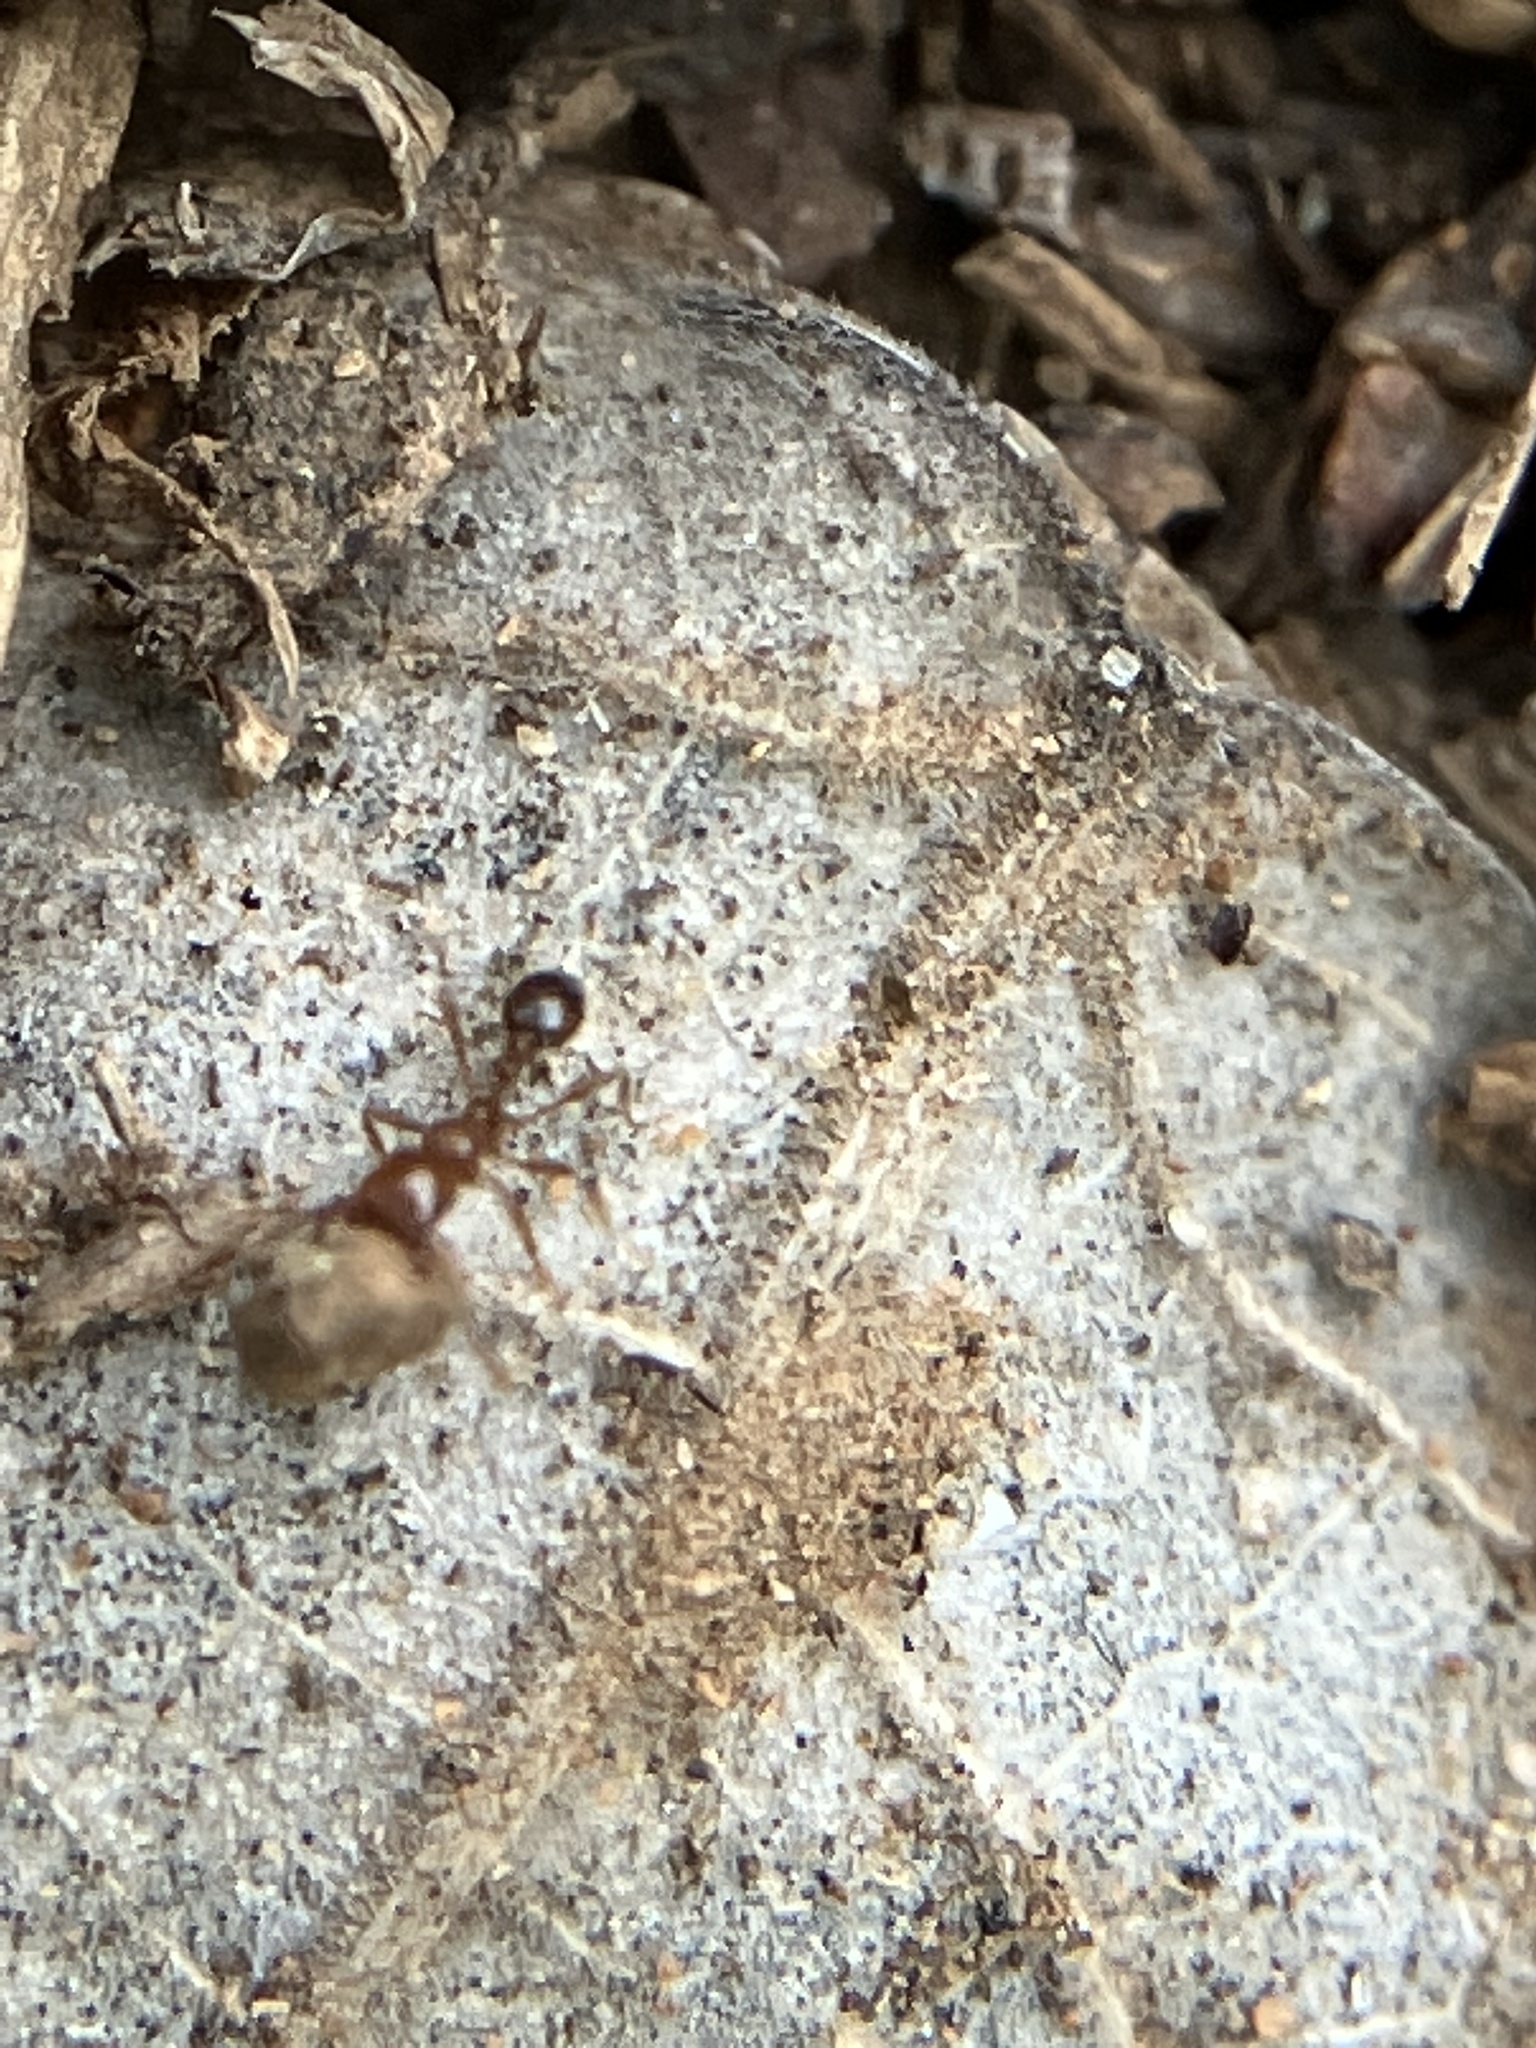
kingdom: Animalia
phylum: Arthropoda
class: Insecta
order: Hymenoptera
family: Formicidae
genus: Solenopsis
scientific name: Solenopsis geminata
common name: Tropical fire ant
